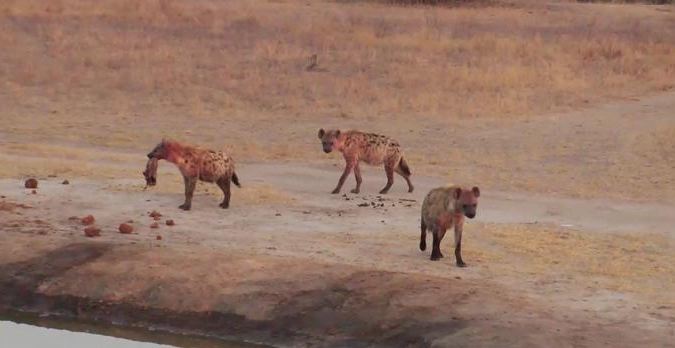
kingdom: Animalia
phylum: Chordata
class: Mammalia
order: Carnivora
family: Hyaenidae
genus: Crocuta
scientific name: Crocuta crocuta
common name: Spotted hyaena
